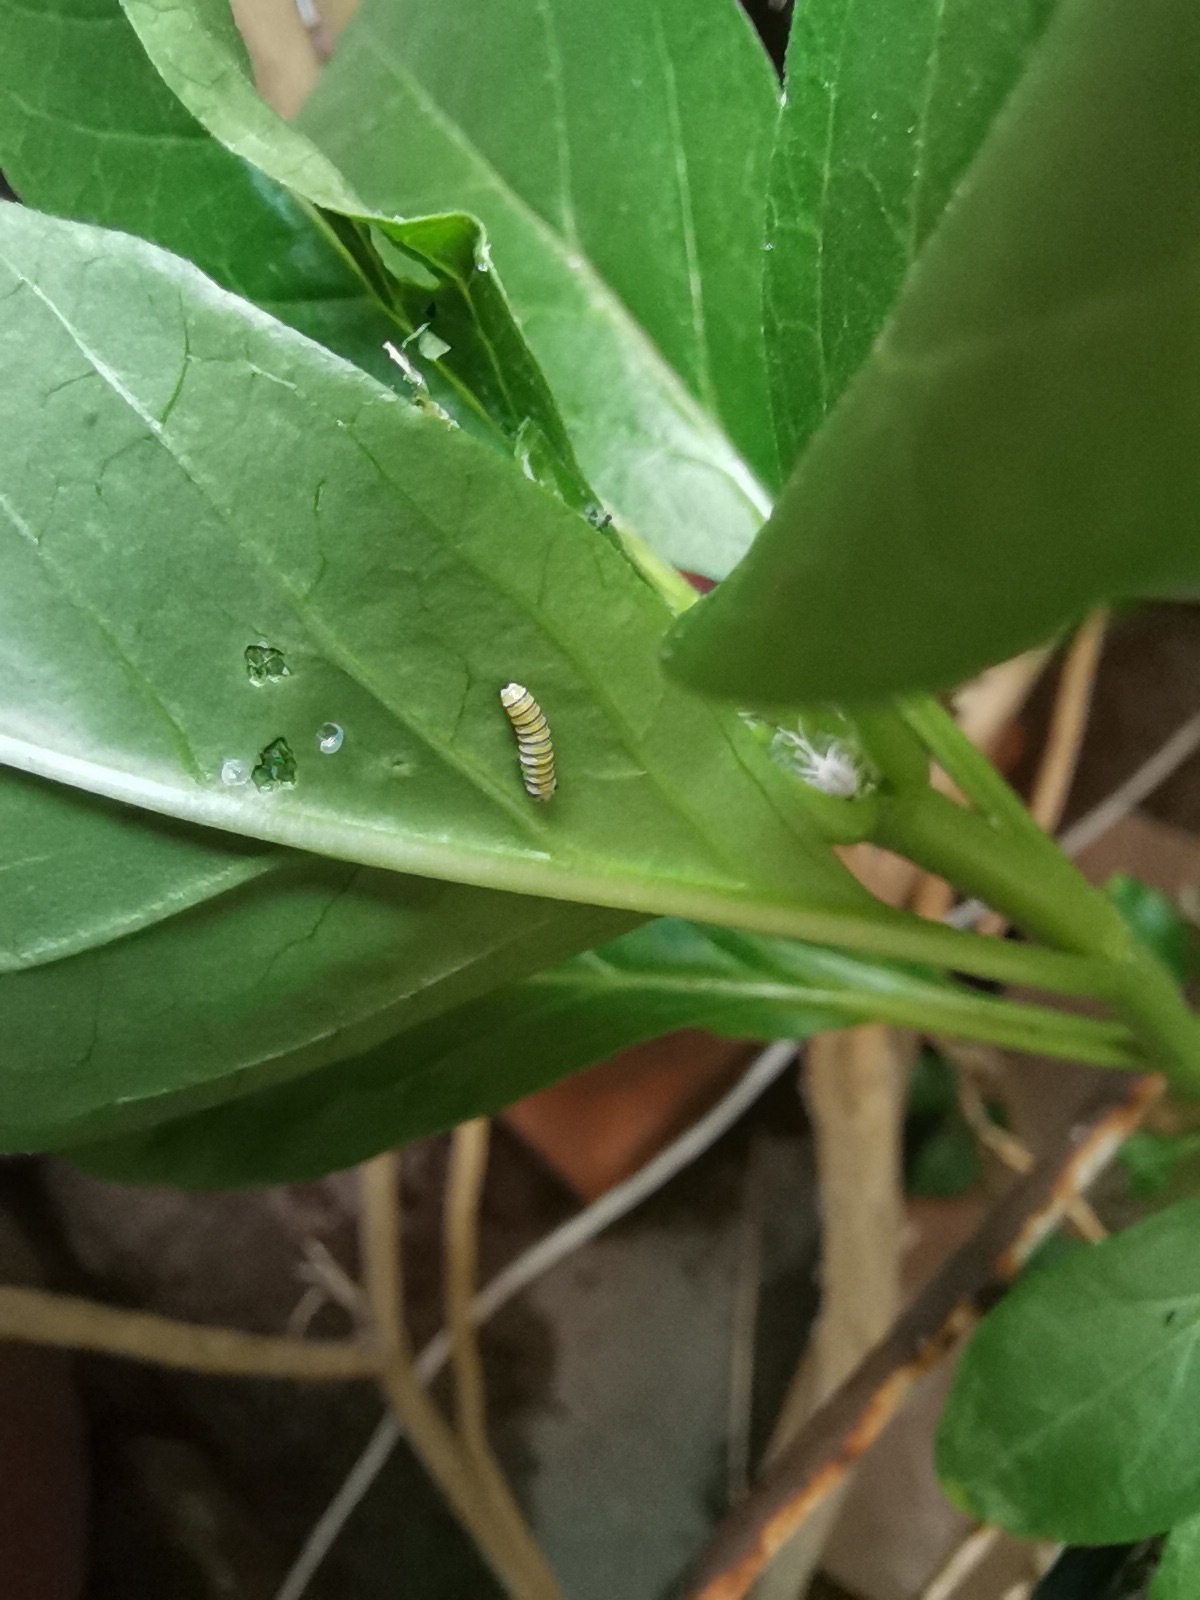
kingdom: Animalia
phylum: Arthropoda
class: Insecta
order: Lepidoptera
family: Nymphalidae
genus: Danaus
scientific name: Danaus plexippus
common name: Monarch
